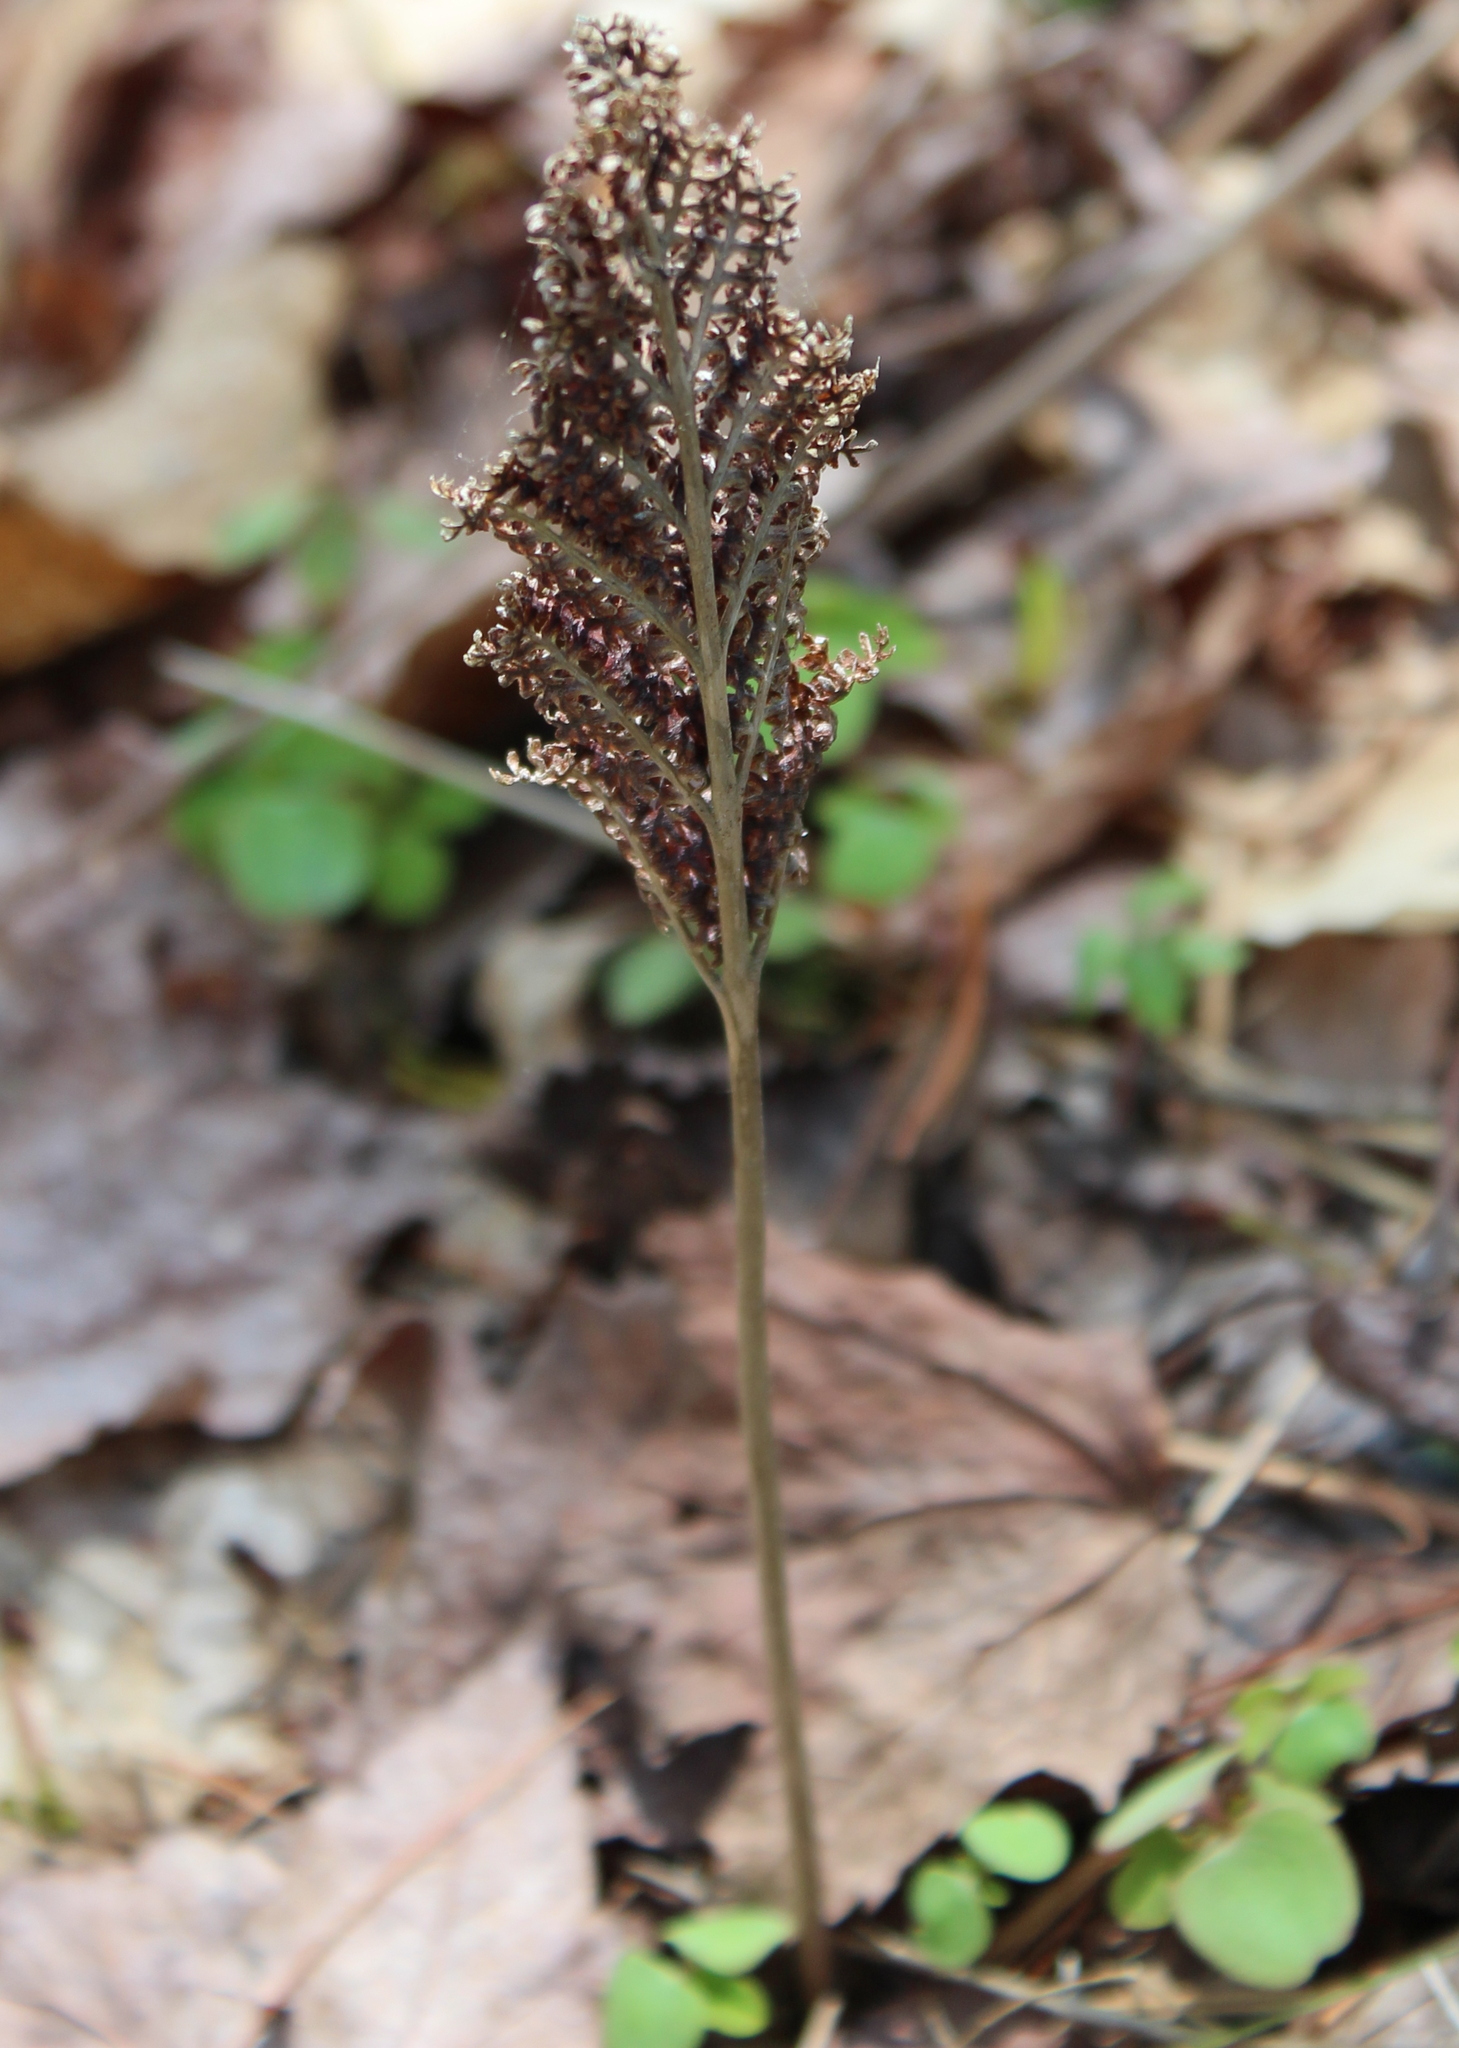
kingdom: Plantae
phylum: Tracheophyta
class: Polypodiopsida
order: Polypodiales
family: Onocleaceae
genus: Onoclea
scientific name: Onoclea sensibilis
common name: Sensitive fern
